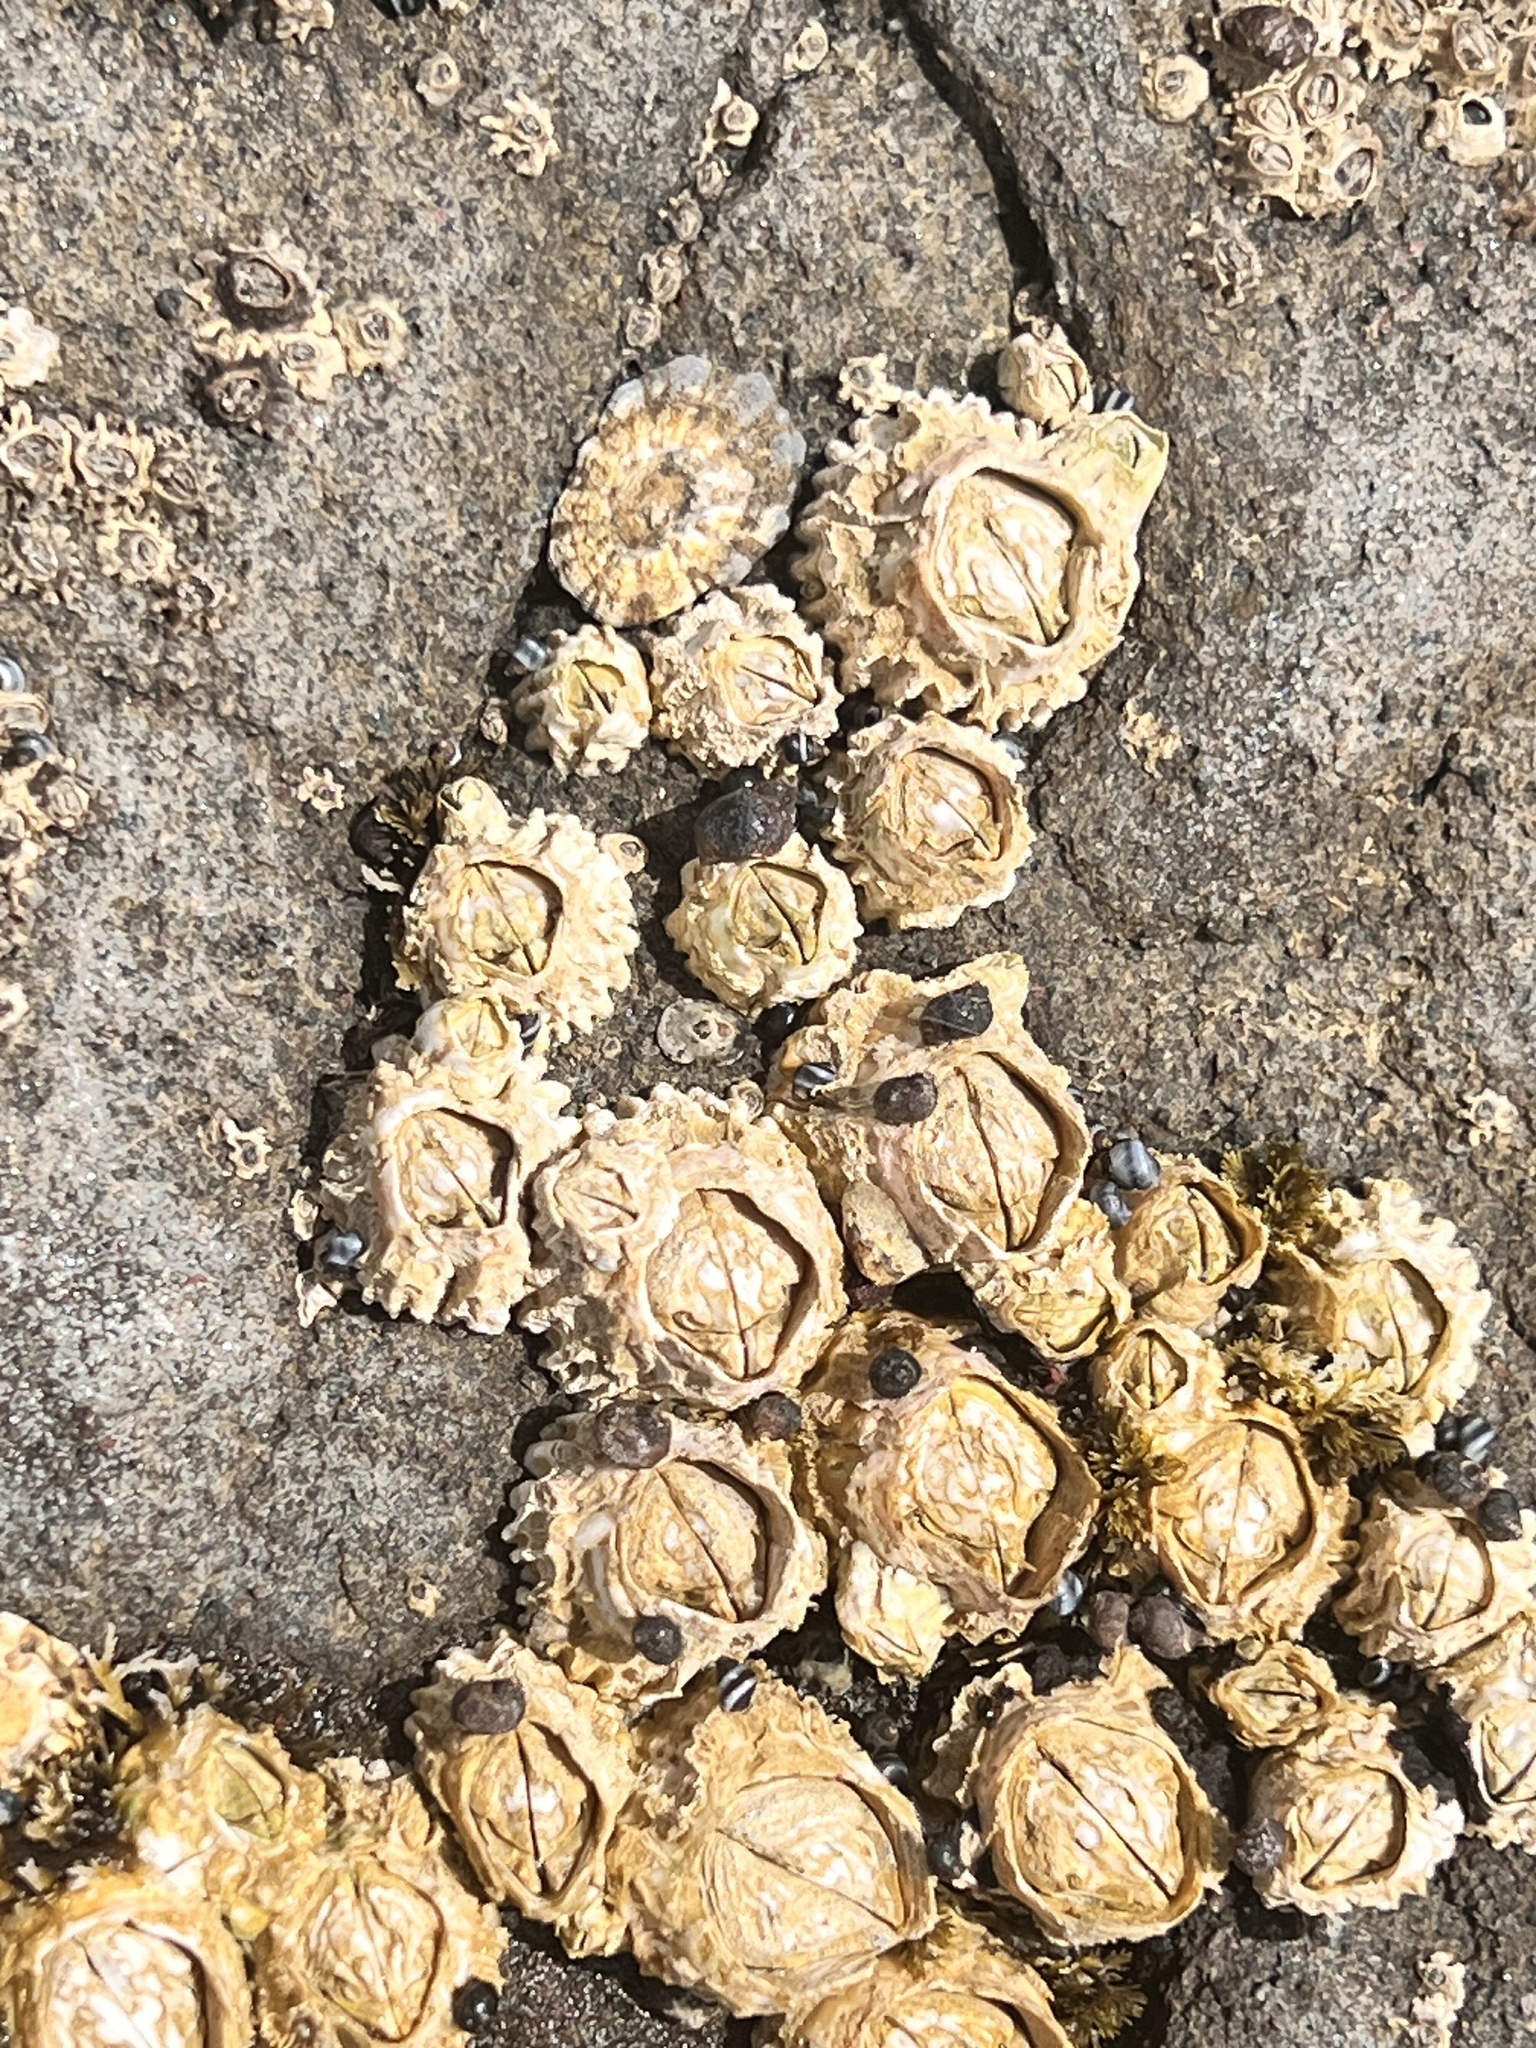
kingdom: Animalia
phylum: Arthropoda
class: Maxillopoda
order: Sessilia
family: Tetraclitidae
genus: Epopella
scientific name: Epopella plicata
